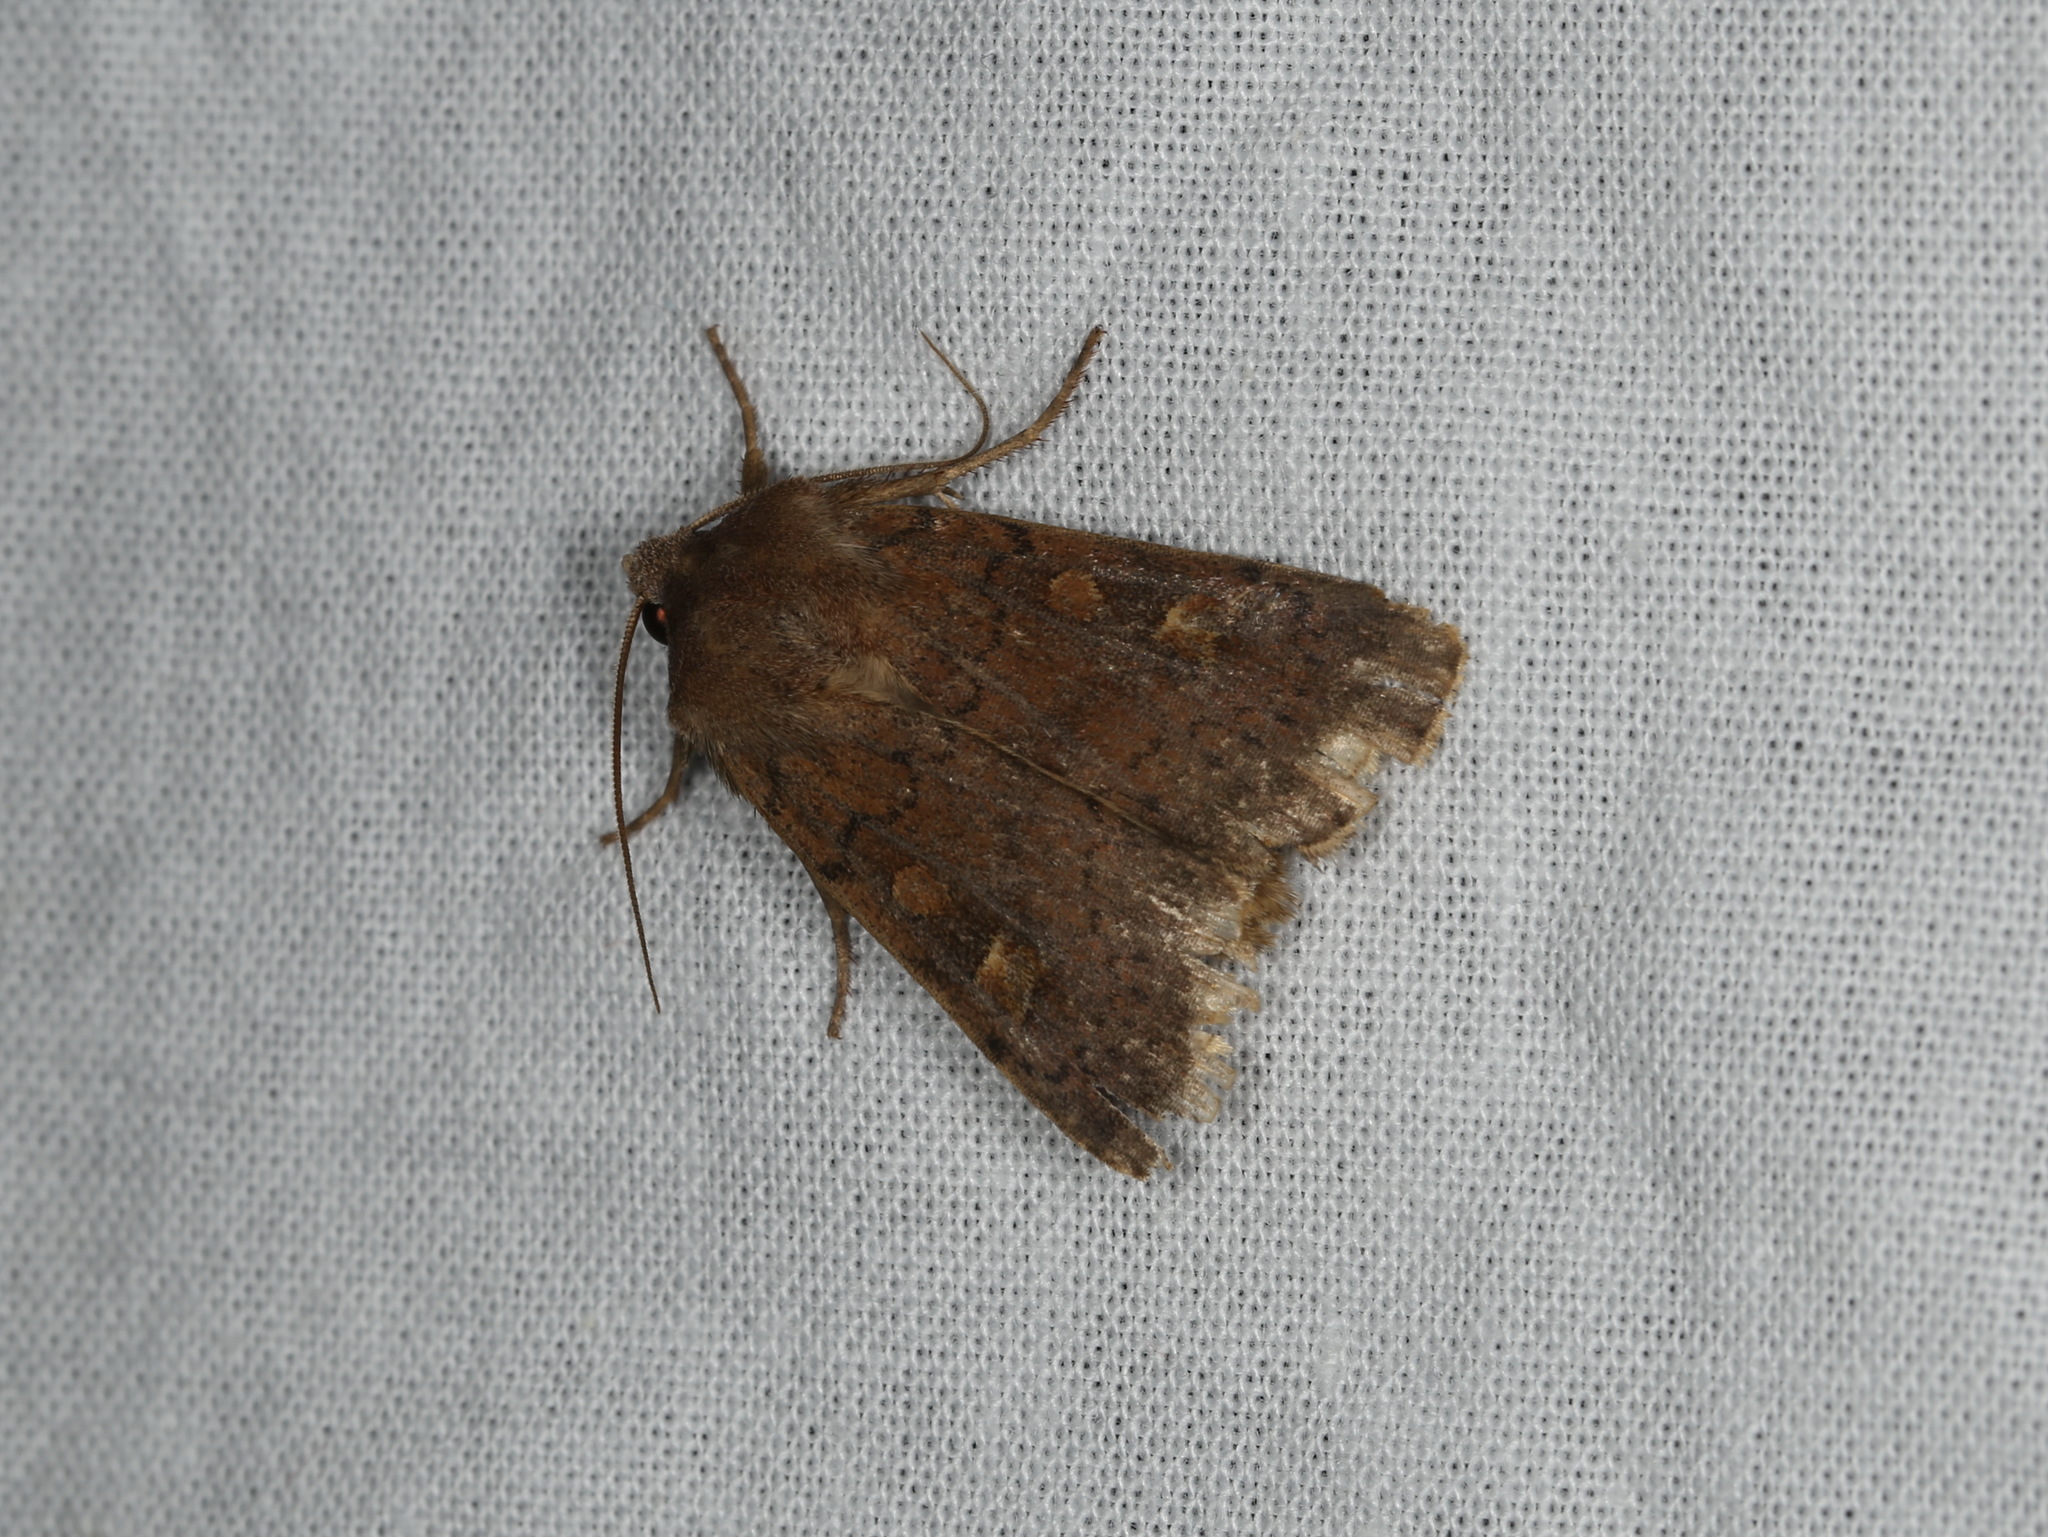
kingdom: Animalia
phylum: Arthropoda
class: Insecta
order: Lepidoptera
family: Noctuidae
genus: Xestia
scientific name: Xestia xanthographa
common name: Square-spot rustic
